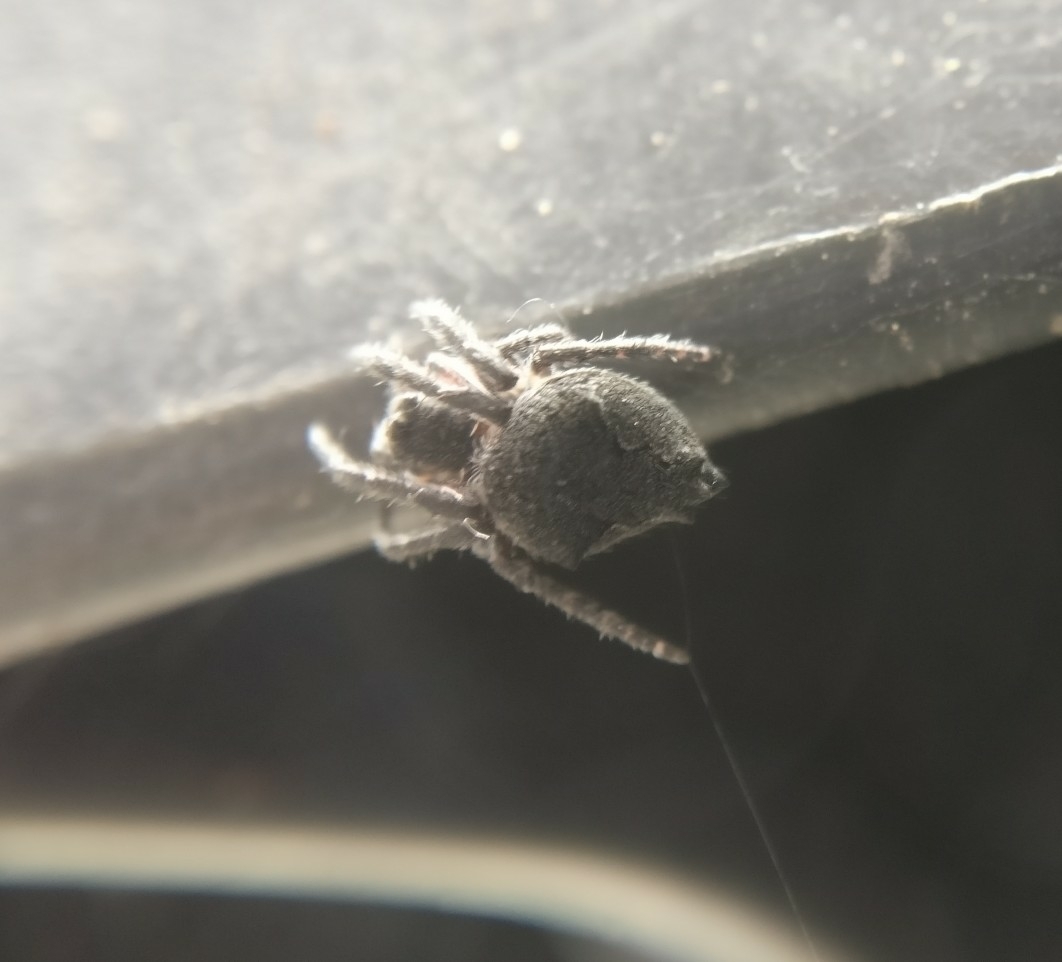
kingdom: Animalia
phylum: Arthropoda
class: Arachnida
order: Araneae
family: Araneidae
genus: Eriophora
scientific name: Eriophora pustulosa
